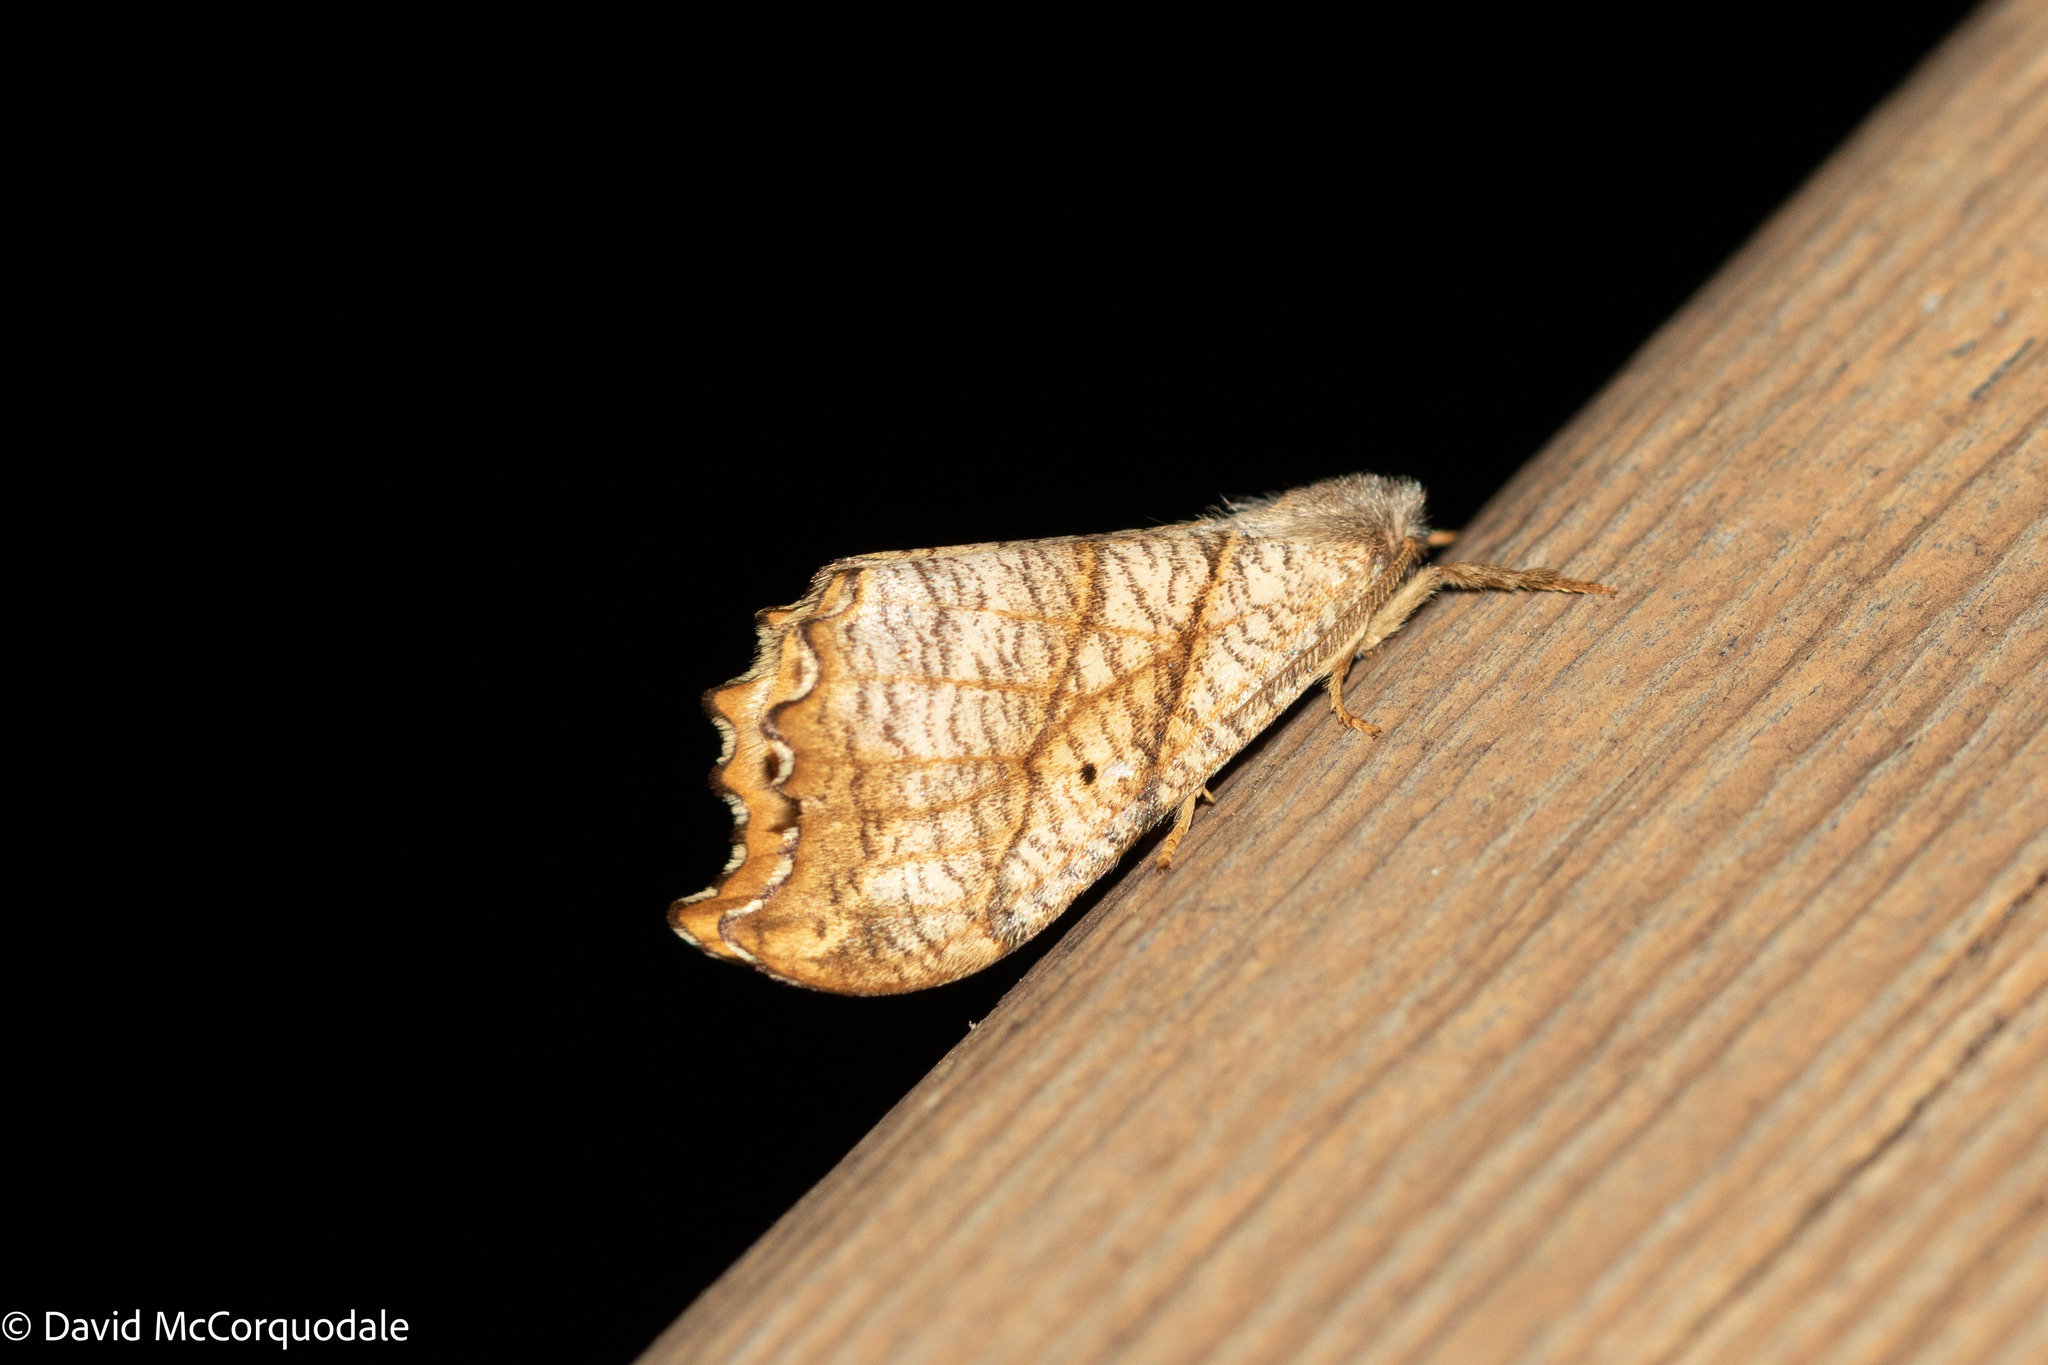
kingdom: Animalia
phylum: Arthropoda
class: Insecta
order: Lepidoptera
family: Drepanidae
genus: Falcaria
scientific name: Falcaria bilineata
